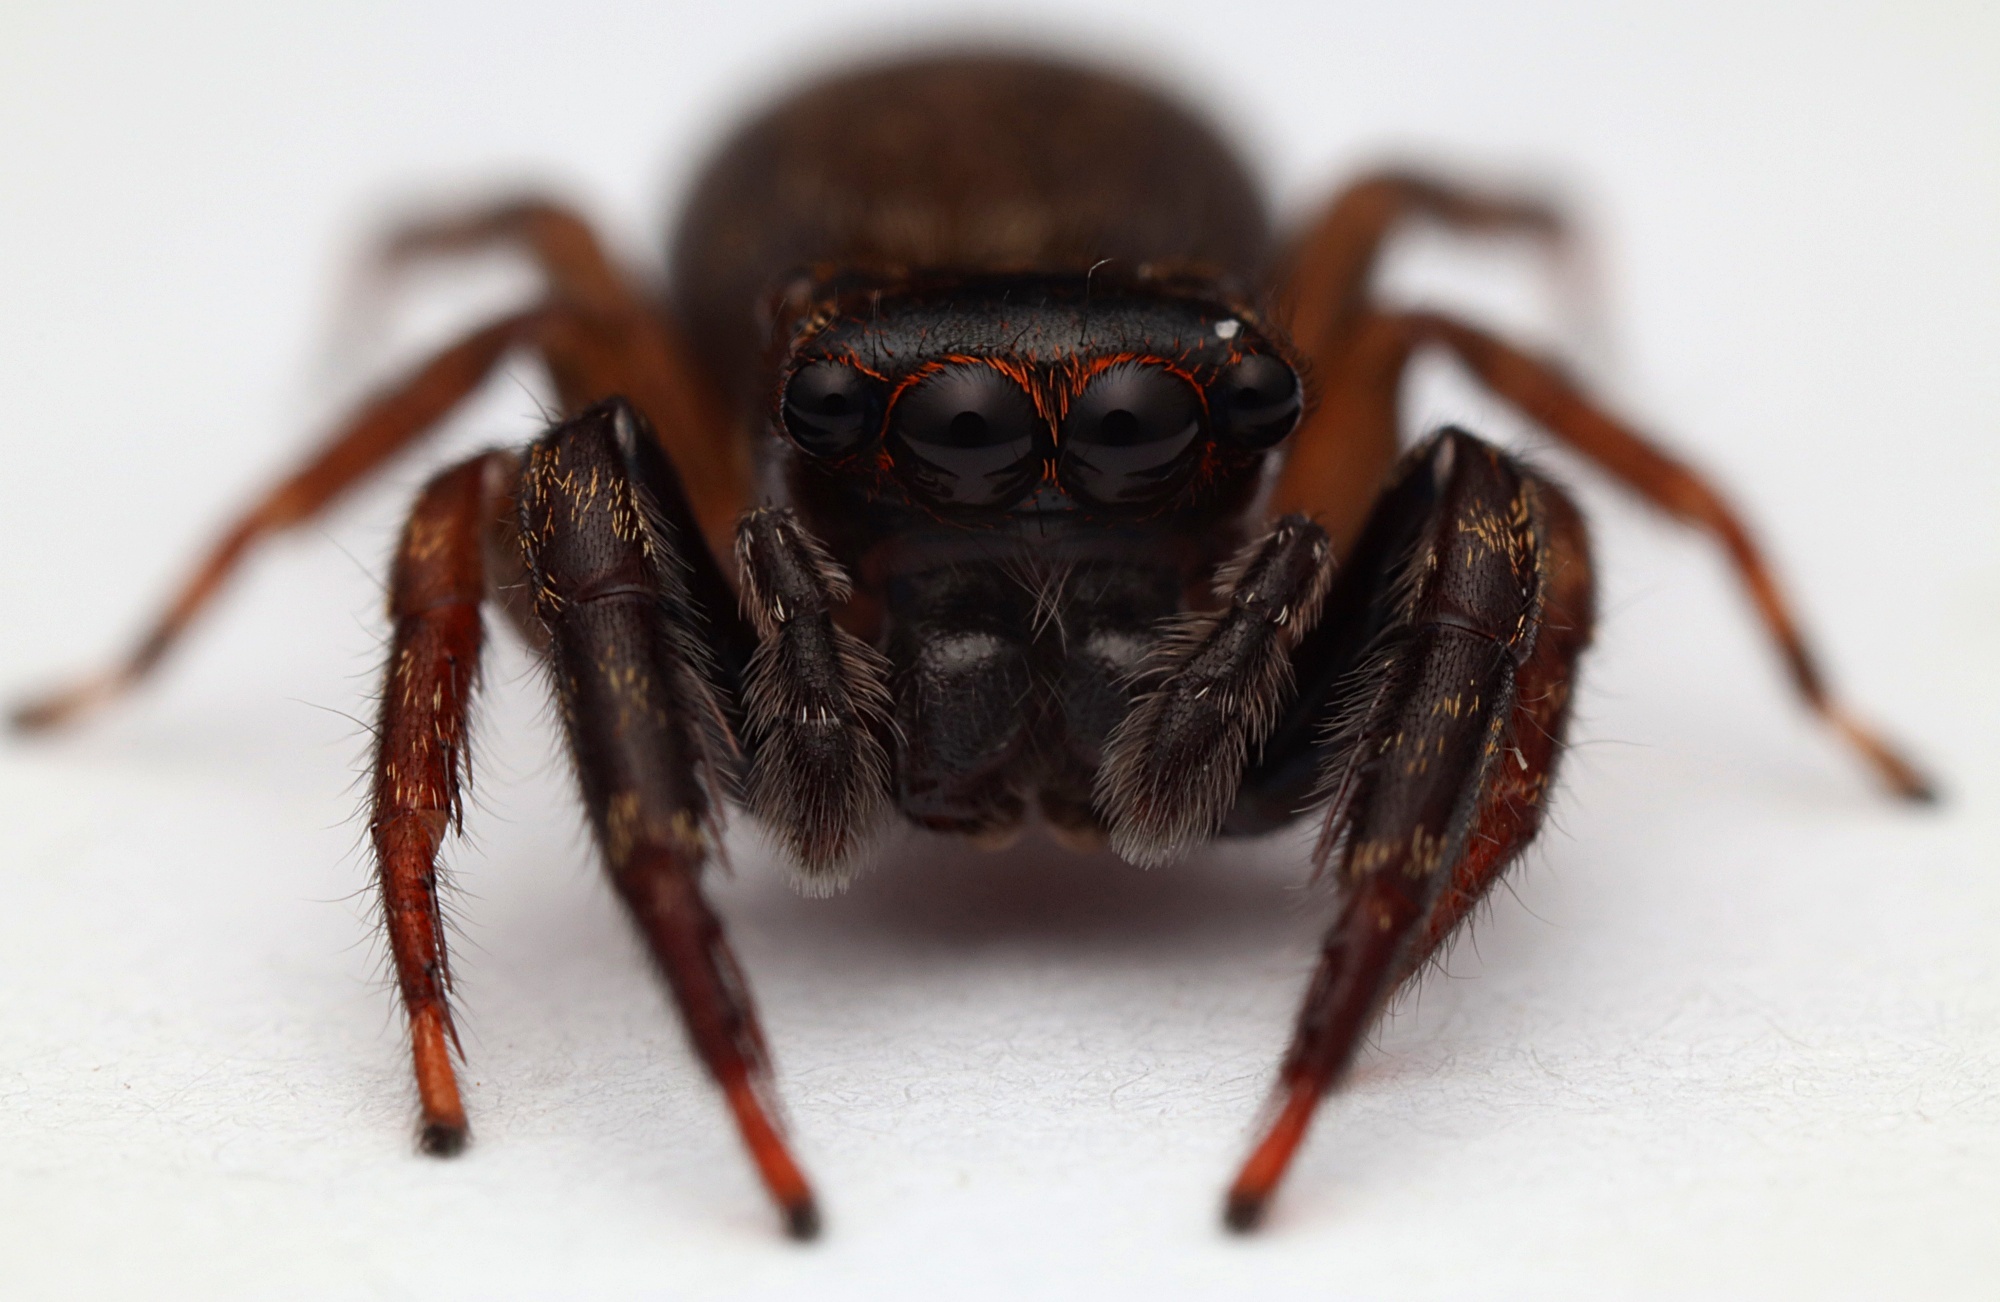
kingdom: Animalia
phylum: Arthropoda
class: Arachnida
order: Araneae
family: Salticidae
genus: Trite
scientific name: Trite auricoma
